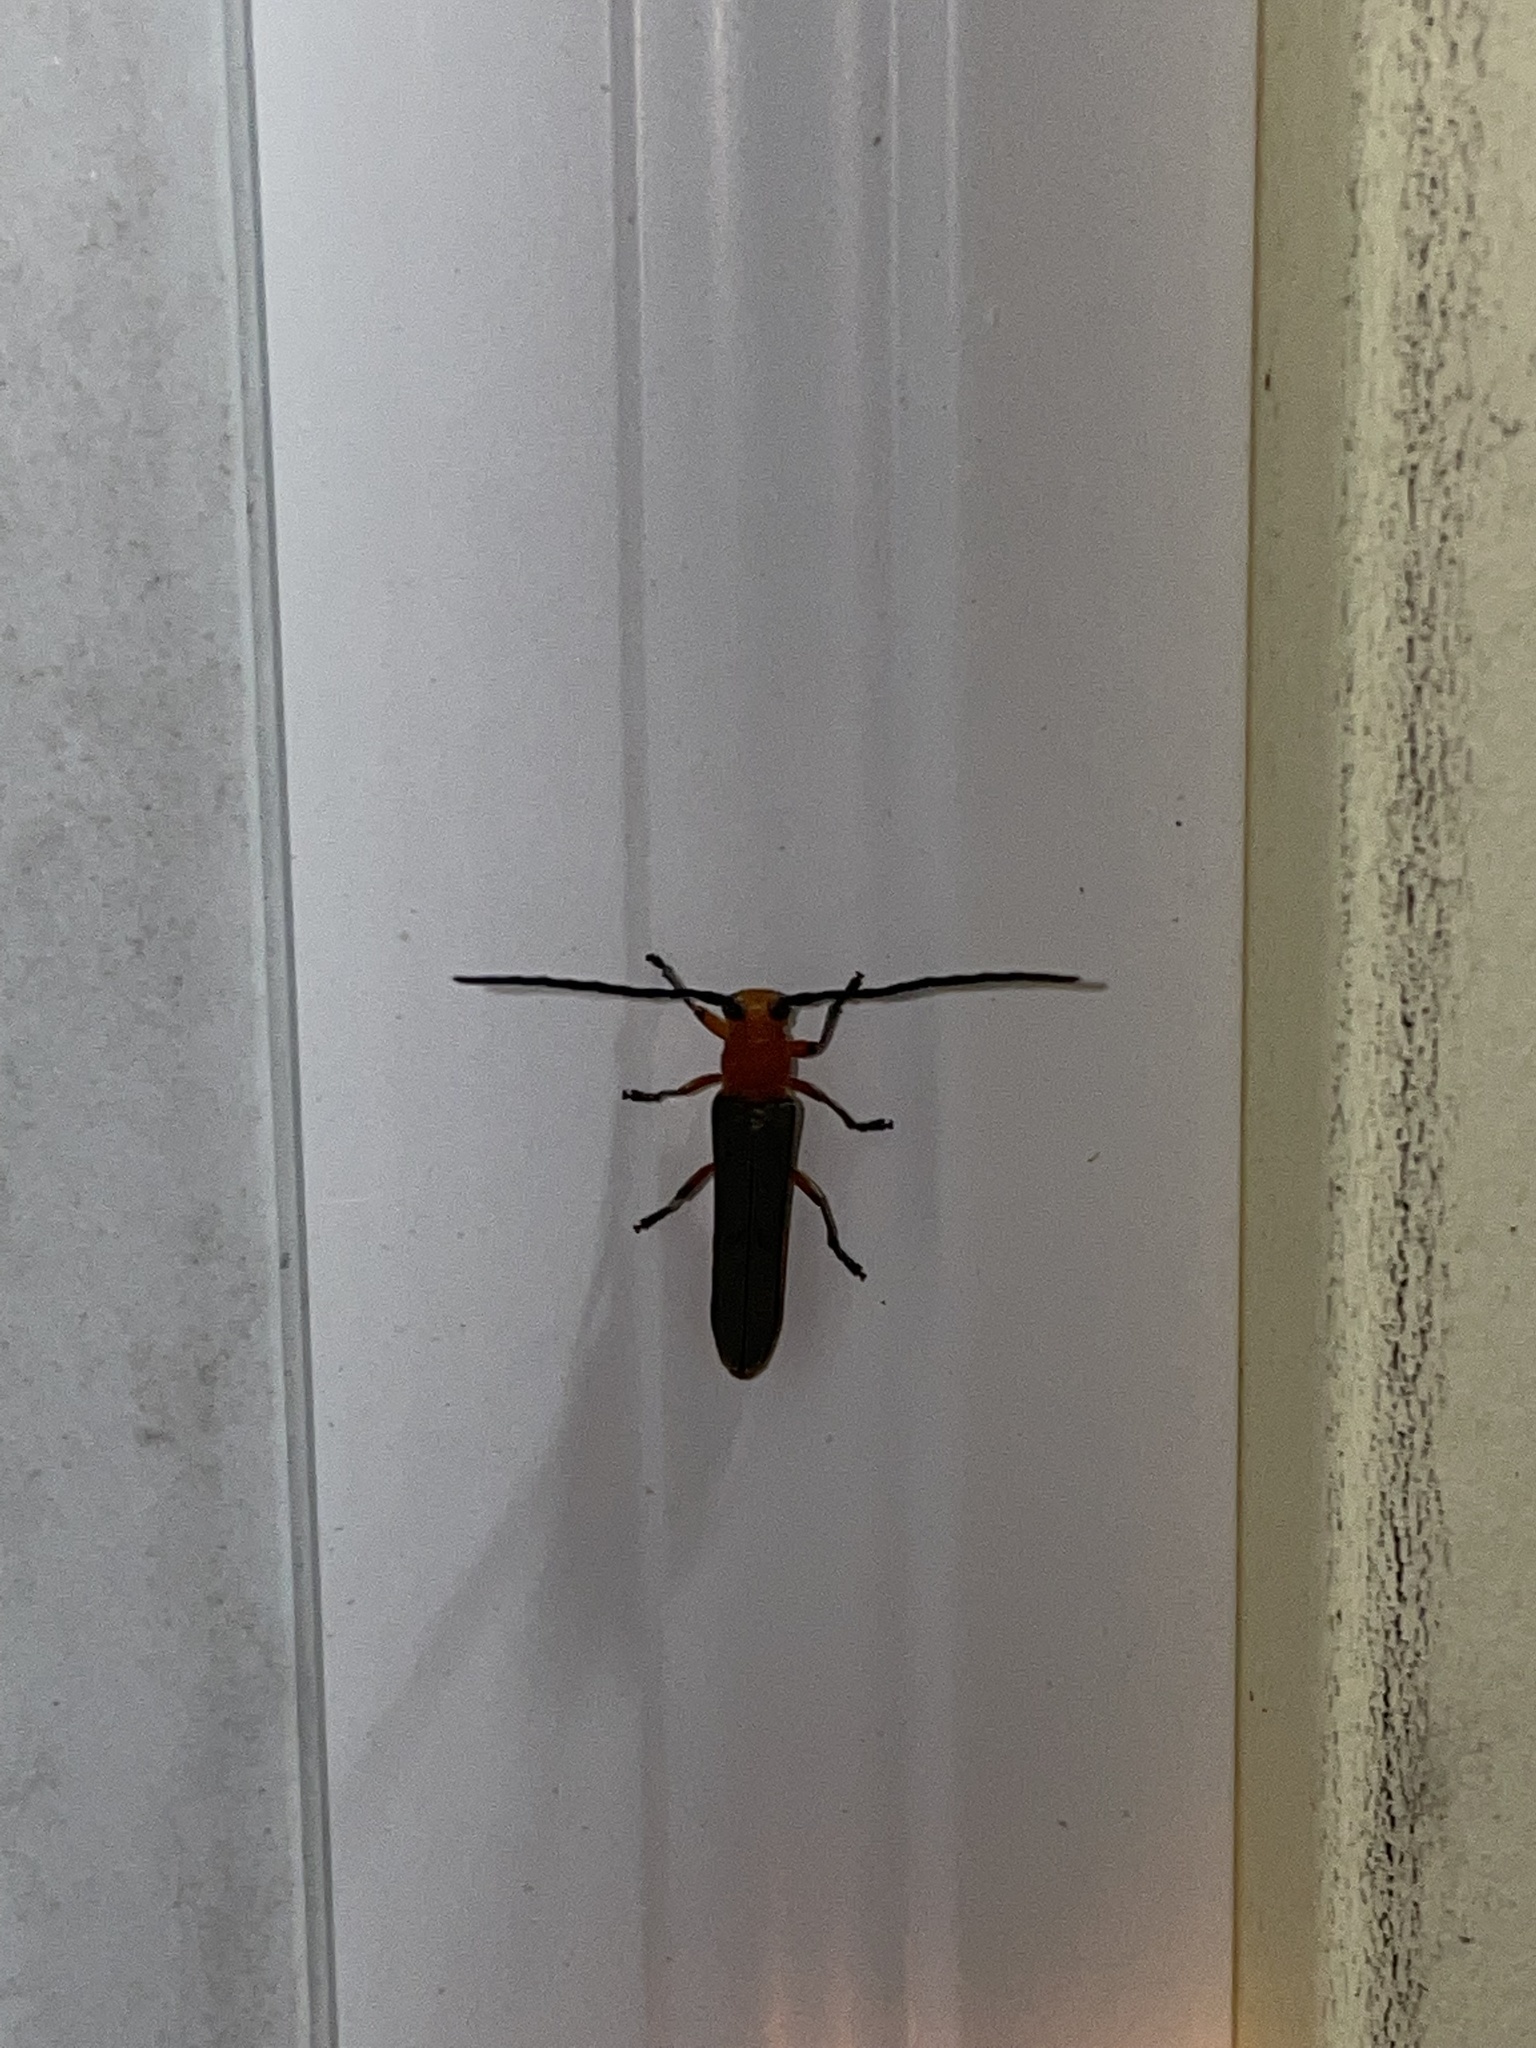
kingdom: Animalia
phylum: Arthropoda
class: Insecta
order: Coleoptera
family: Cerambycidae
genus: Oberea
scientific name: Oberea ruficollis
